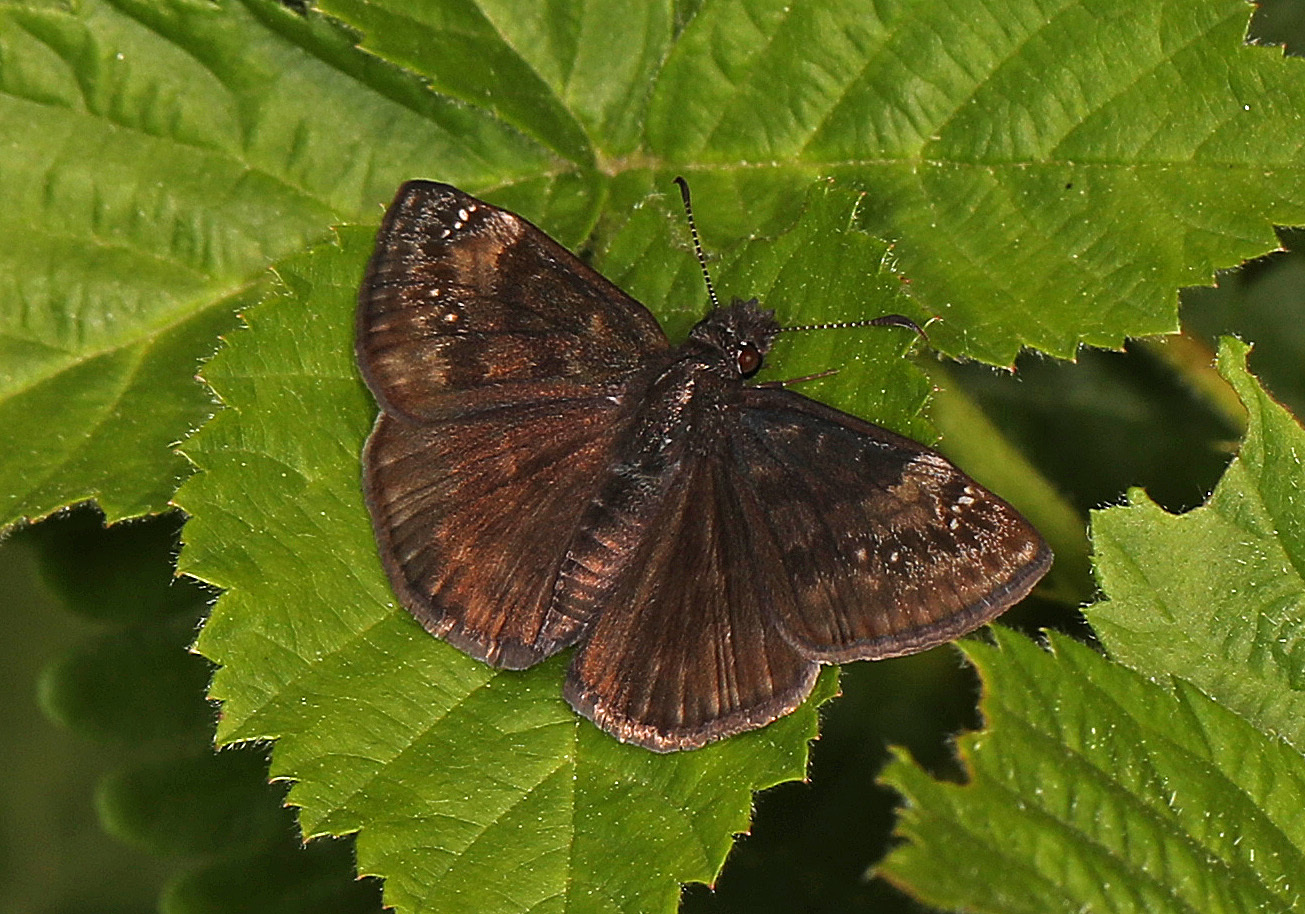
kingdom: Animalia
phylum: Arthropoda
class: Insecta
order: Lepidoptera
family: Hesperiidae
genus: Erynnis
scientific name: Erynnis baptisiae
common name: Wild indigo duskywing
